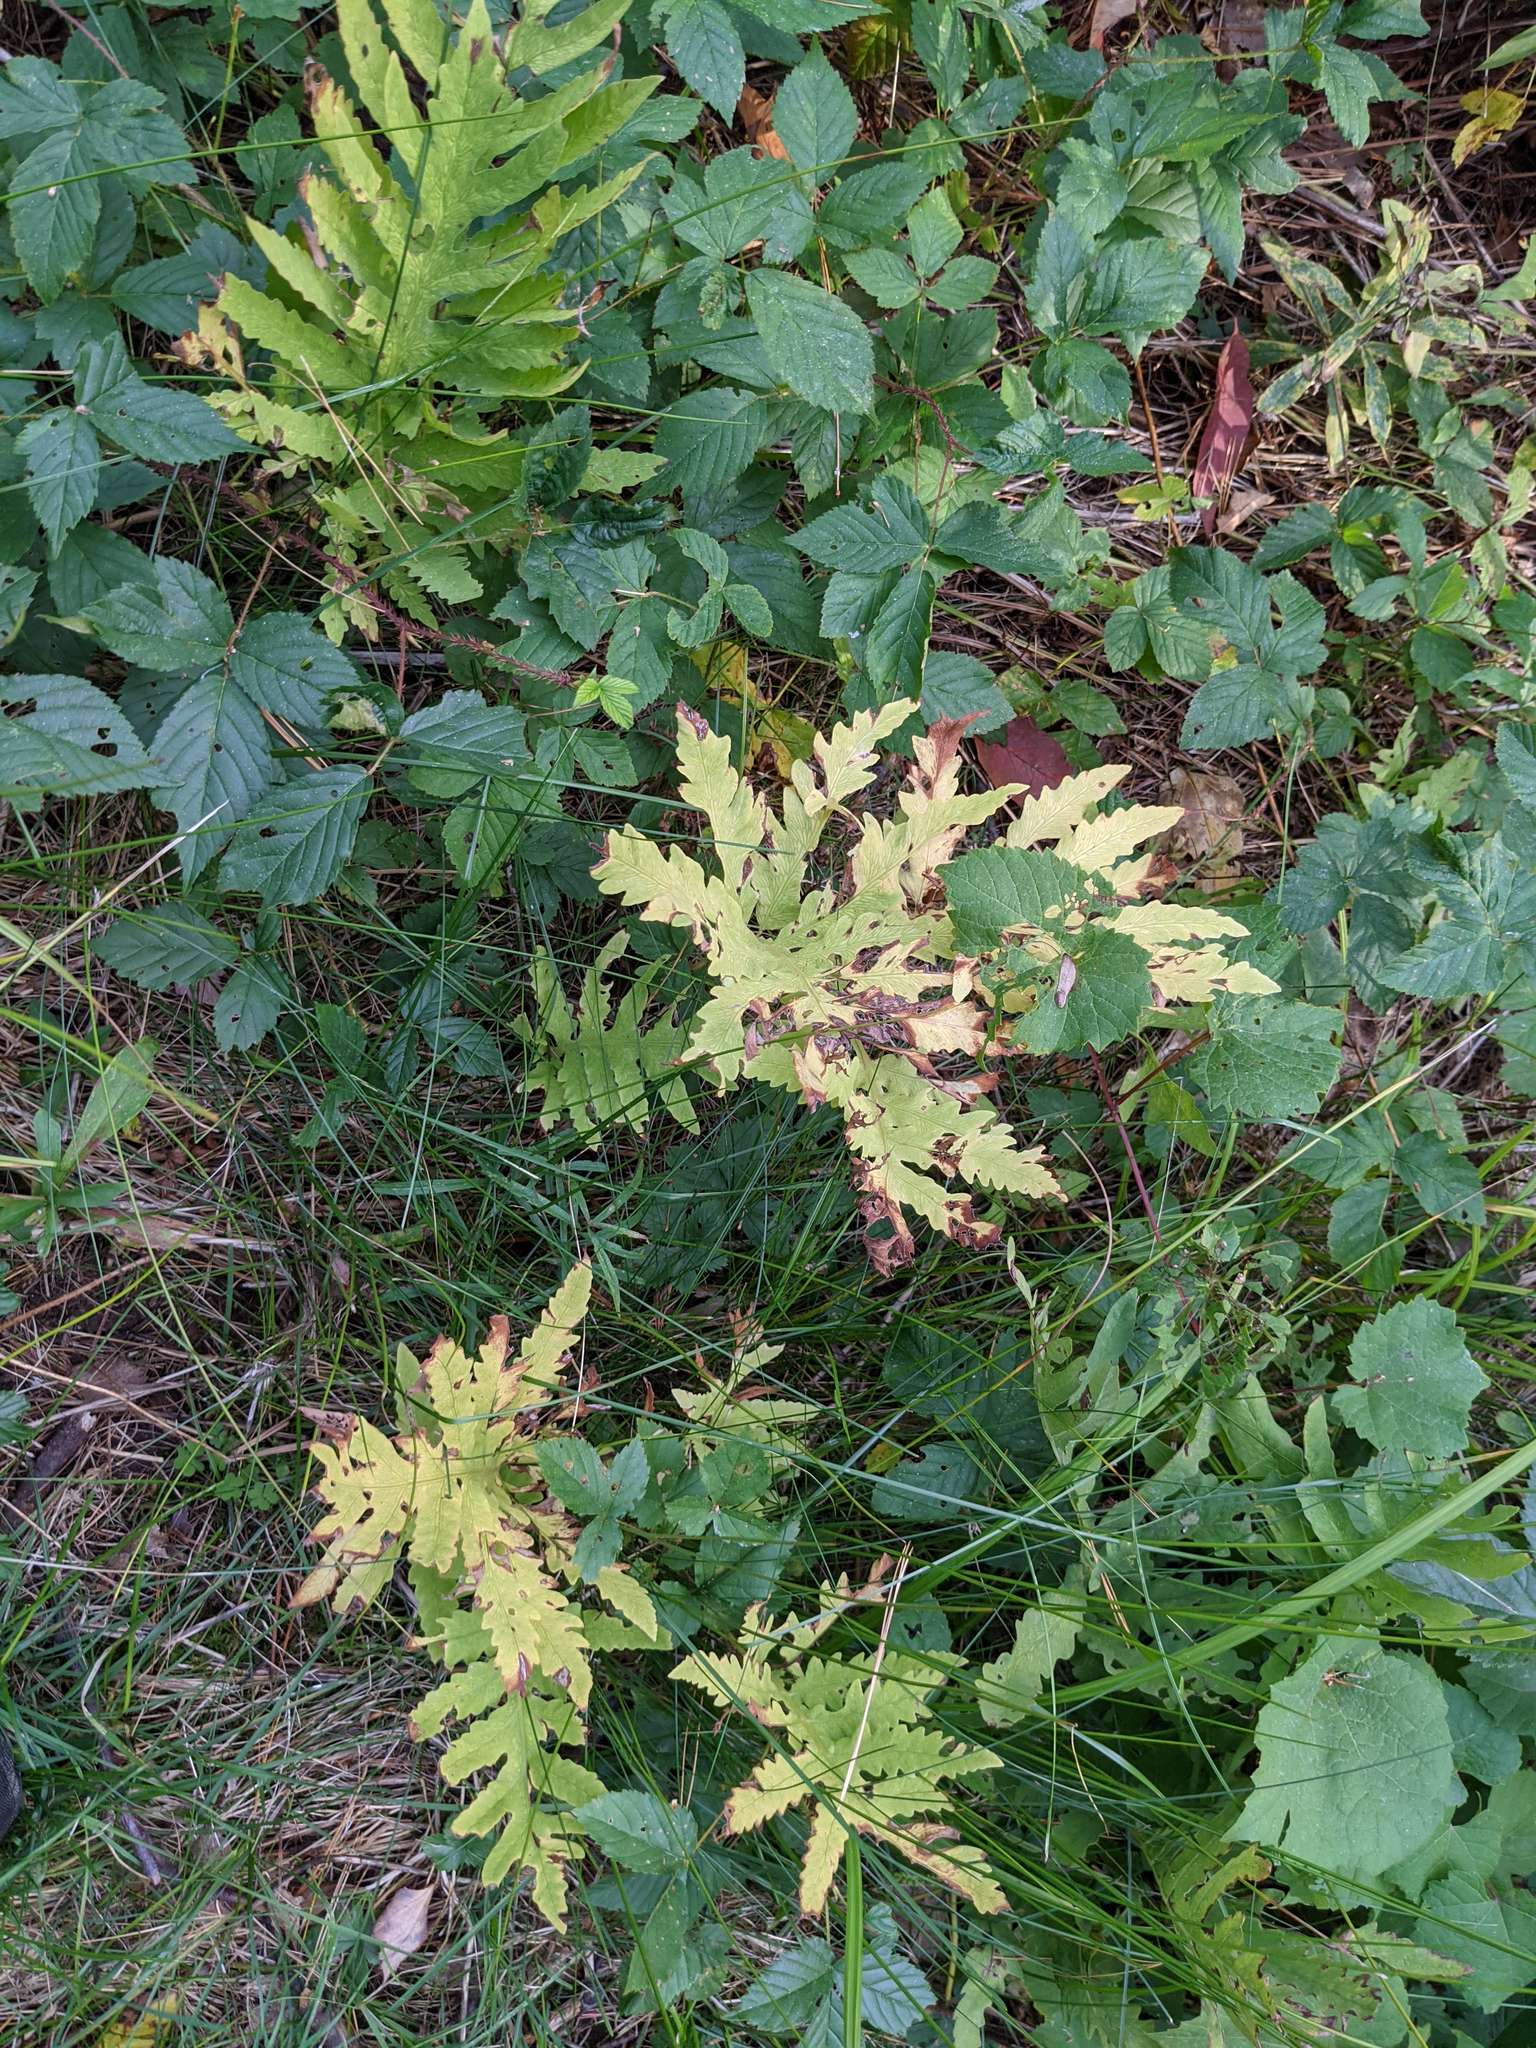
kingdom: Plantae
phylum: Tracheophyta
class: Polypodiopsida
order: Polypodiales
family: Onocleaceae
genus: Onoclea
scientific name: Onoclea sensibilis
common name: Sensitive fern
